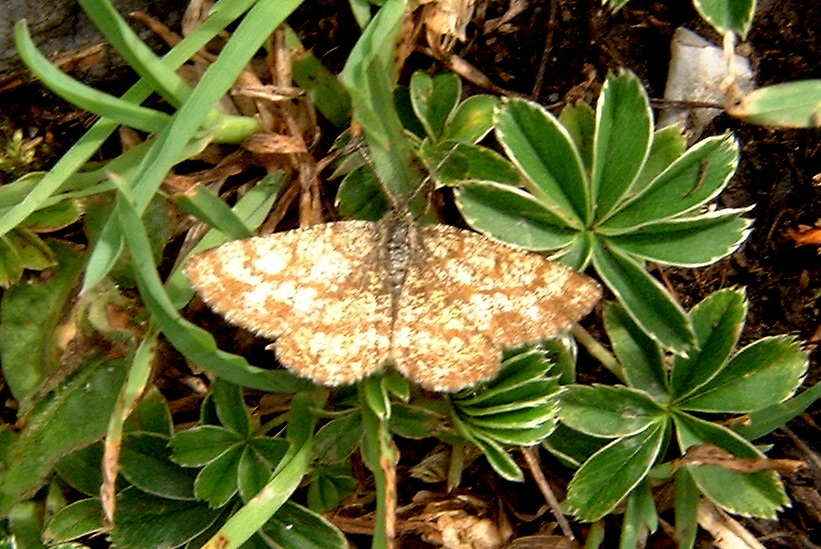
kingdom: Animalia
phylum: Arthropoda
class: Insecta
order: Lepidoptera
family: Geometridae
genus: Ematurga
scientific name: Ematurga atomaria
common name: Common heath
